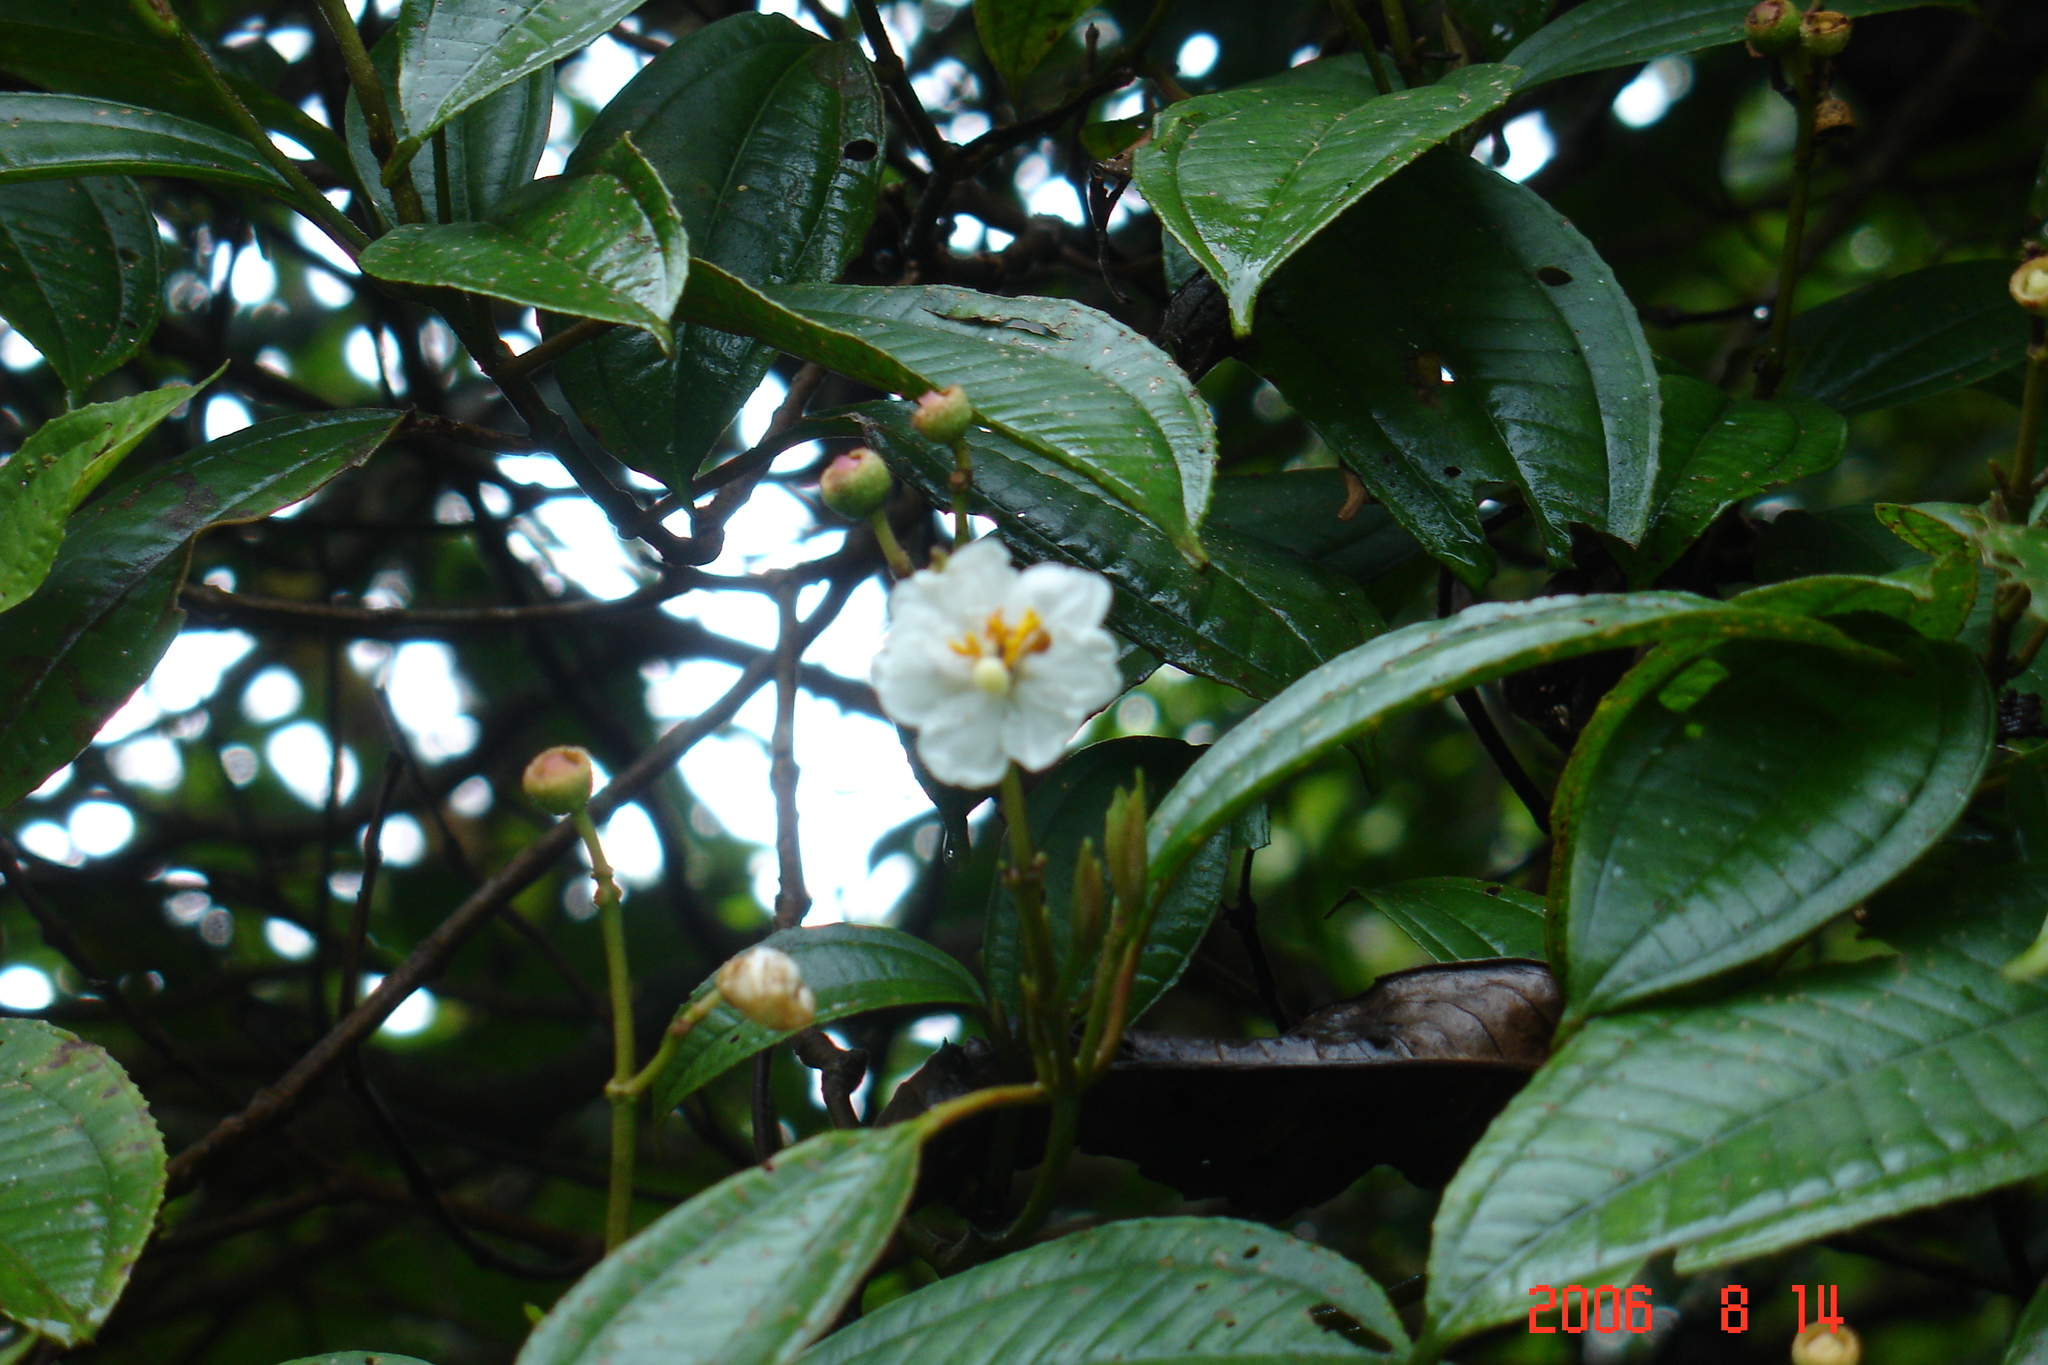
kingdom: Plantae
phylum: Tracheophyta
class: Magnoliopsida
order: Myrtales
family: Melastomataceae
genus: Miconia
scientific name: Miconia subhirsuta
